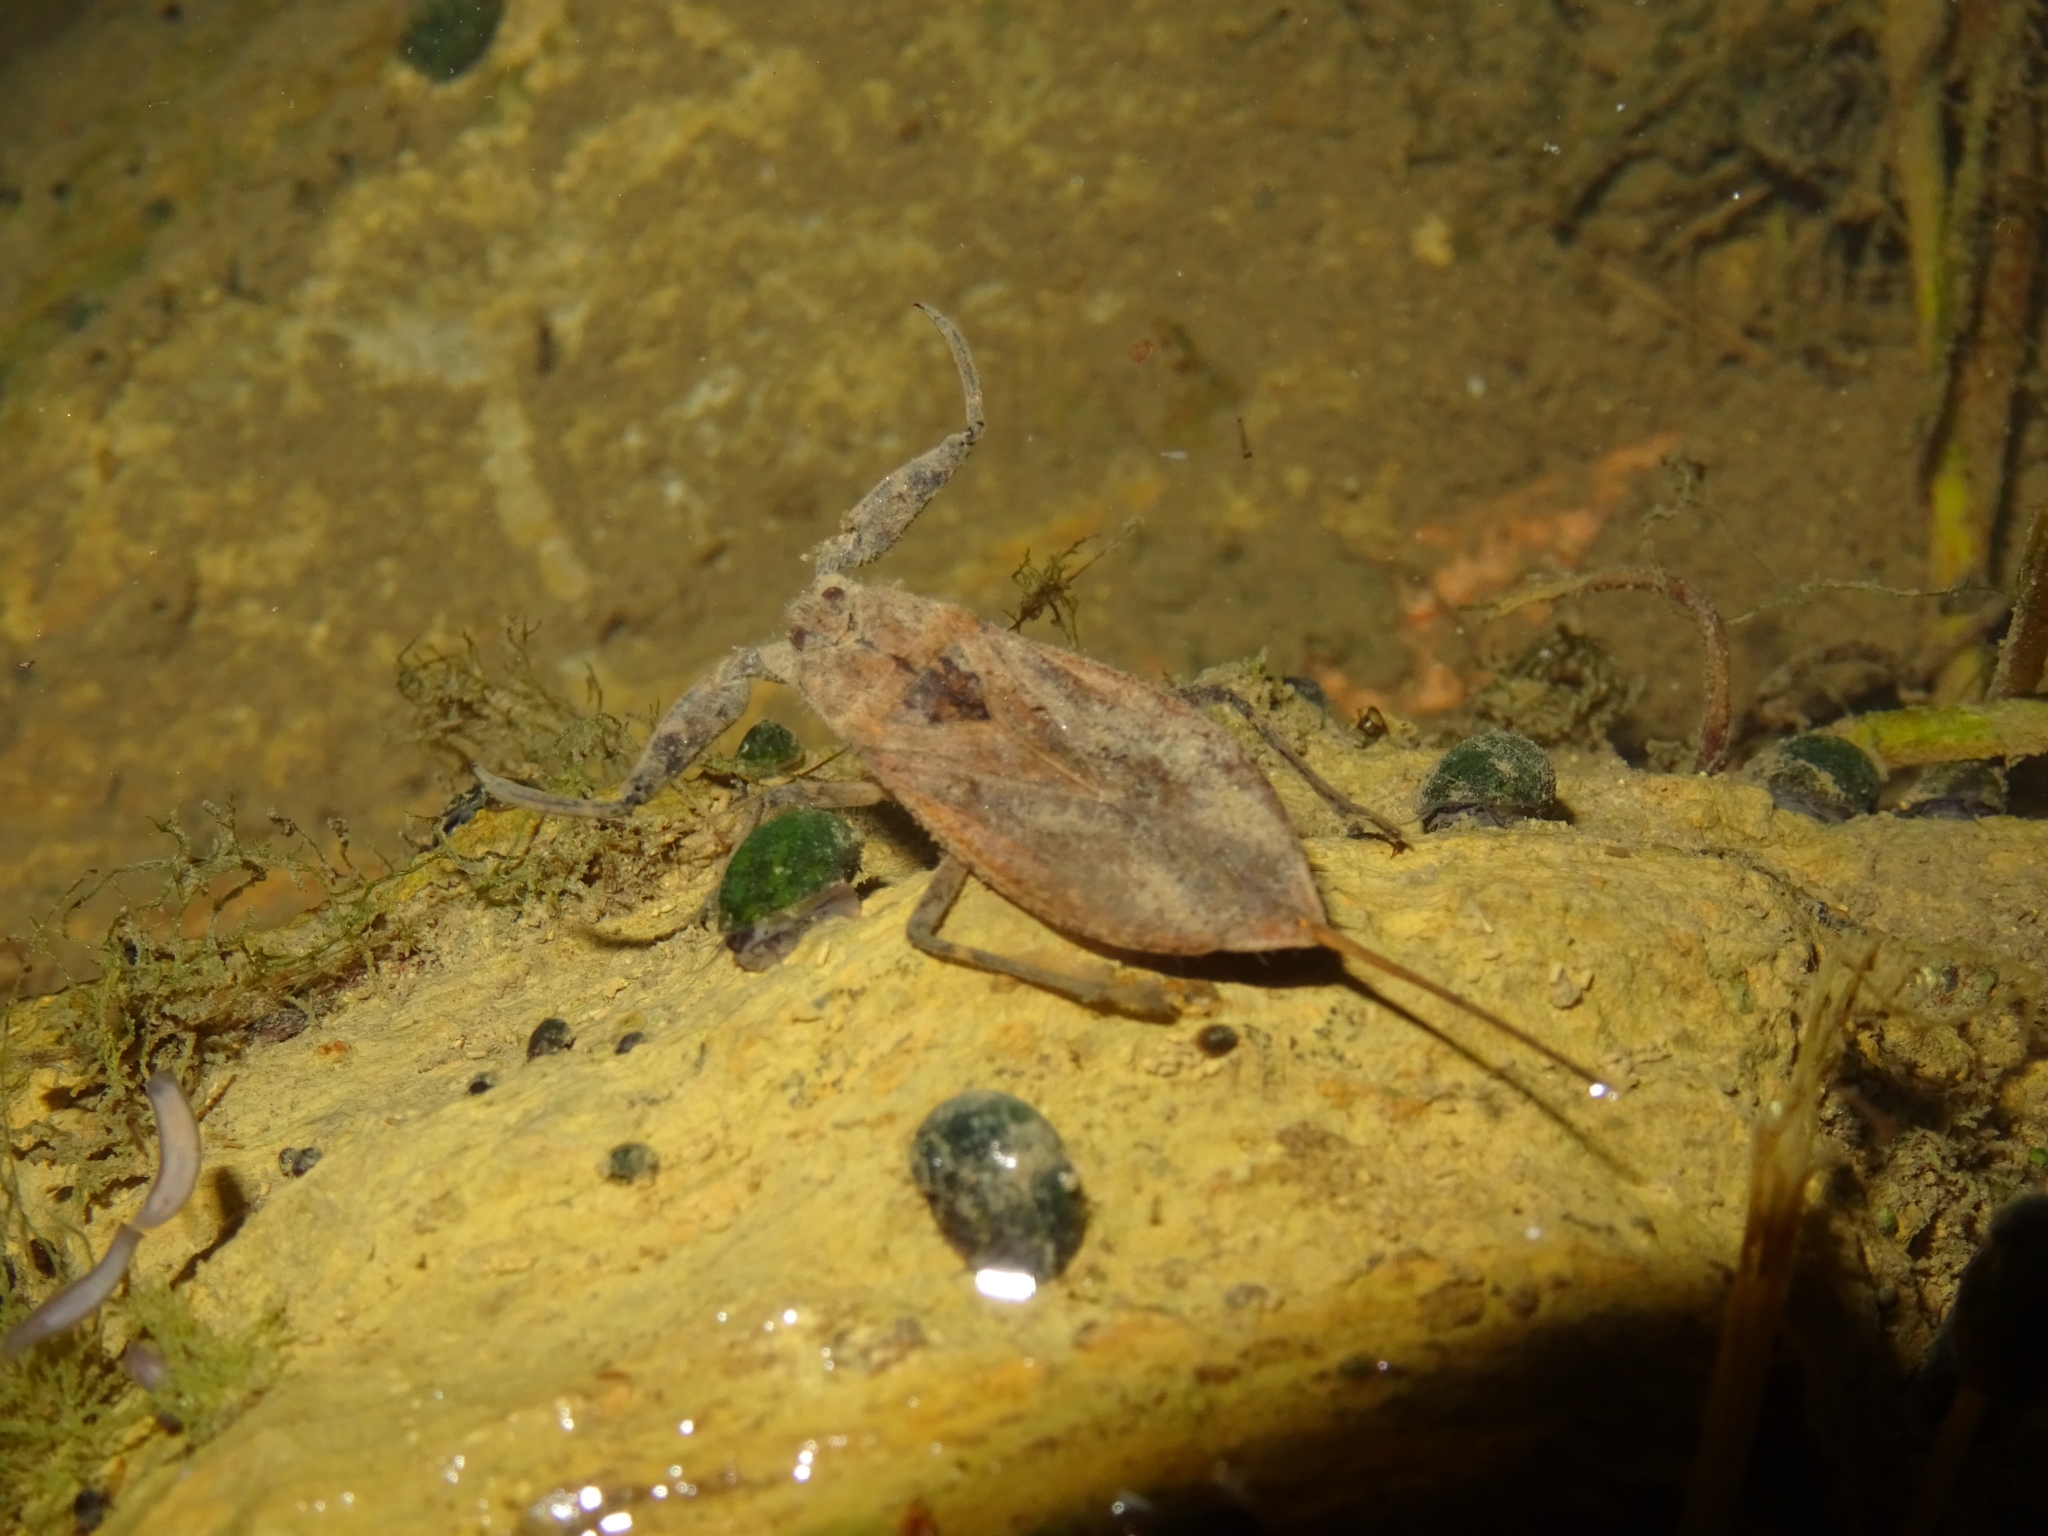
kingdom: Animalia
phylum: Arthropoda
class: Insecta
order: Hemiptera
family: Nepidae
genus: Nepa
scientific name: Nepa cinerea
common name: Water scorpion
